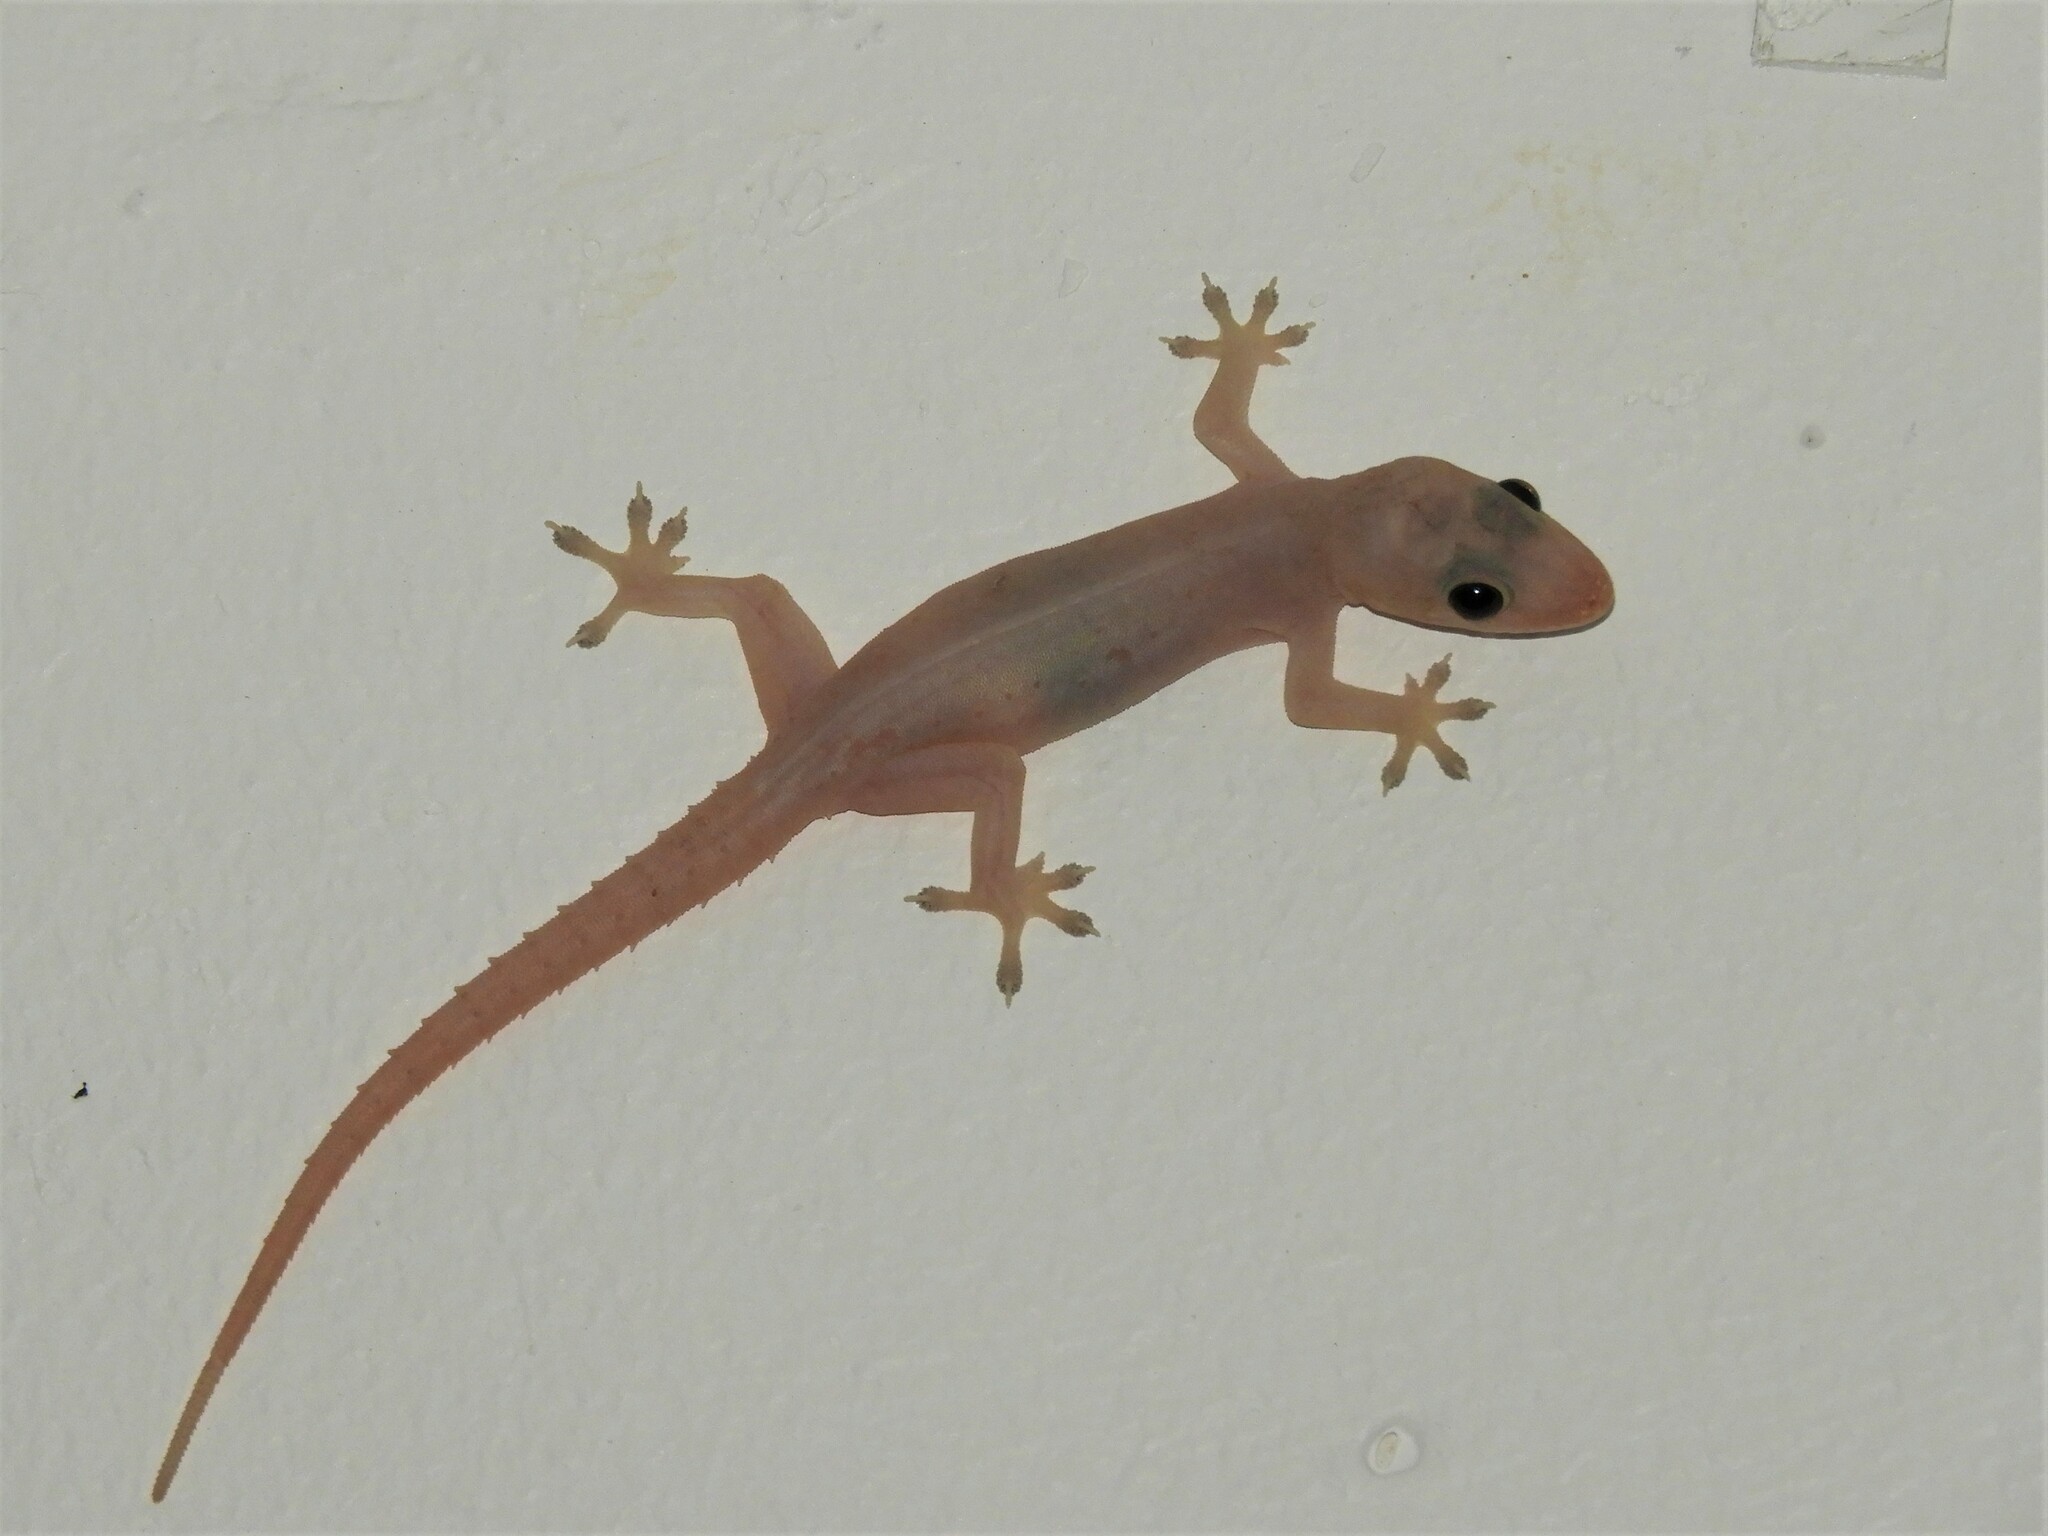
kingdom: Animalia
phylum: Chordata
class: Squamata
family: Gekkonidae
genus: Hemidactylus
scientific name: Hemidactylus frenatus
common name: Common house gecko
